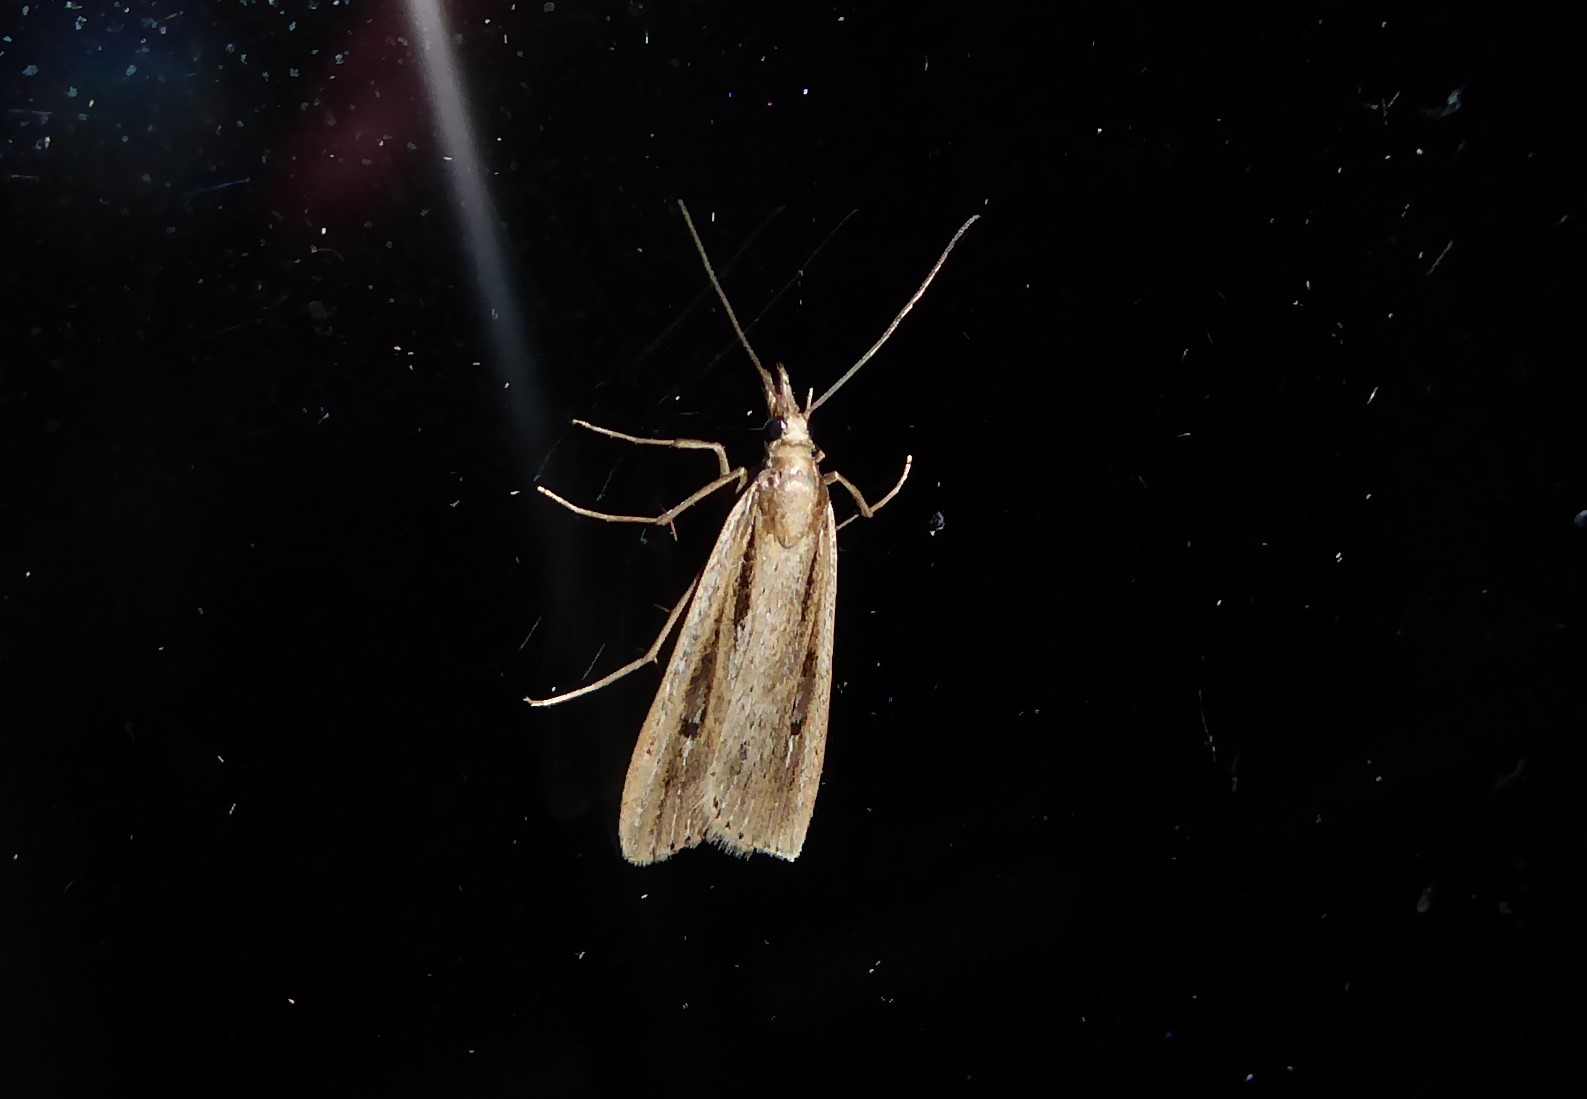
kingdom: Animalia
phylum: Arthropoda
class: Insecta
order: Lepidoptera
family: Crambidae
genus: Eudonia
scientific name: Eudonia sabulosella
